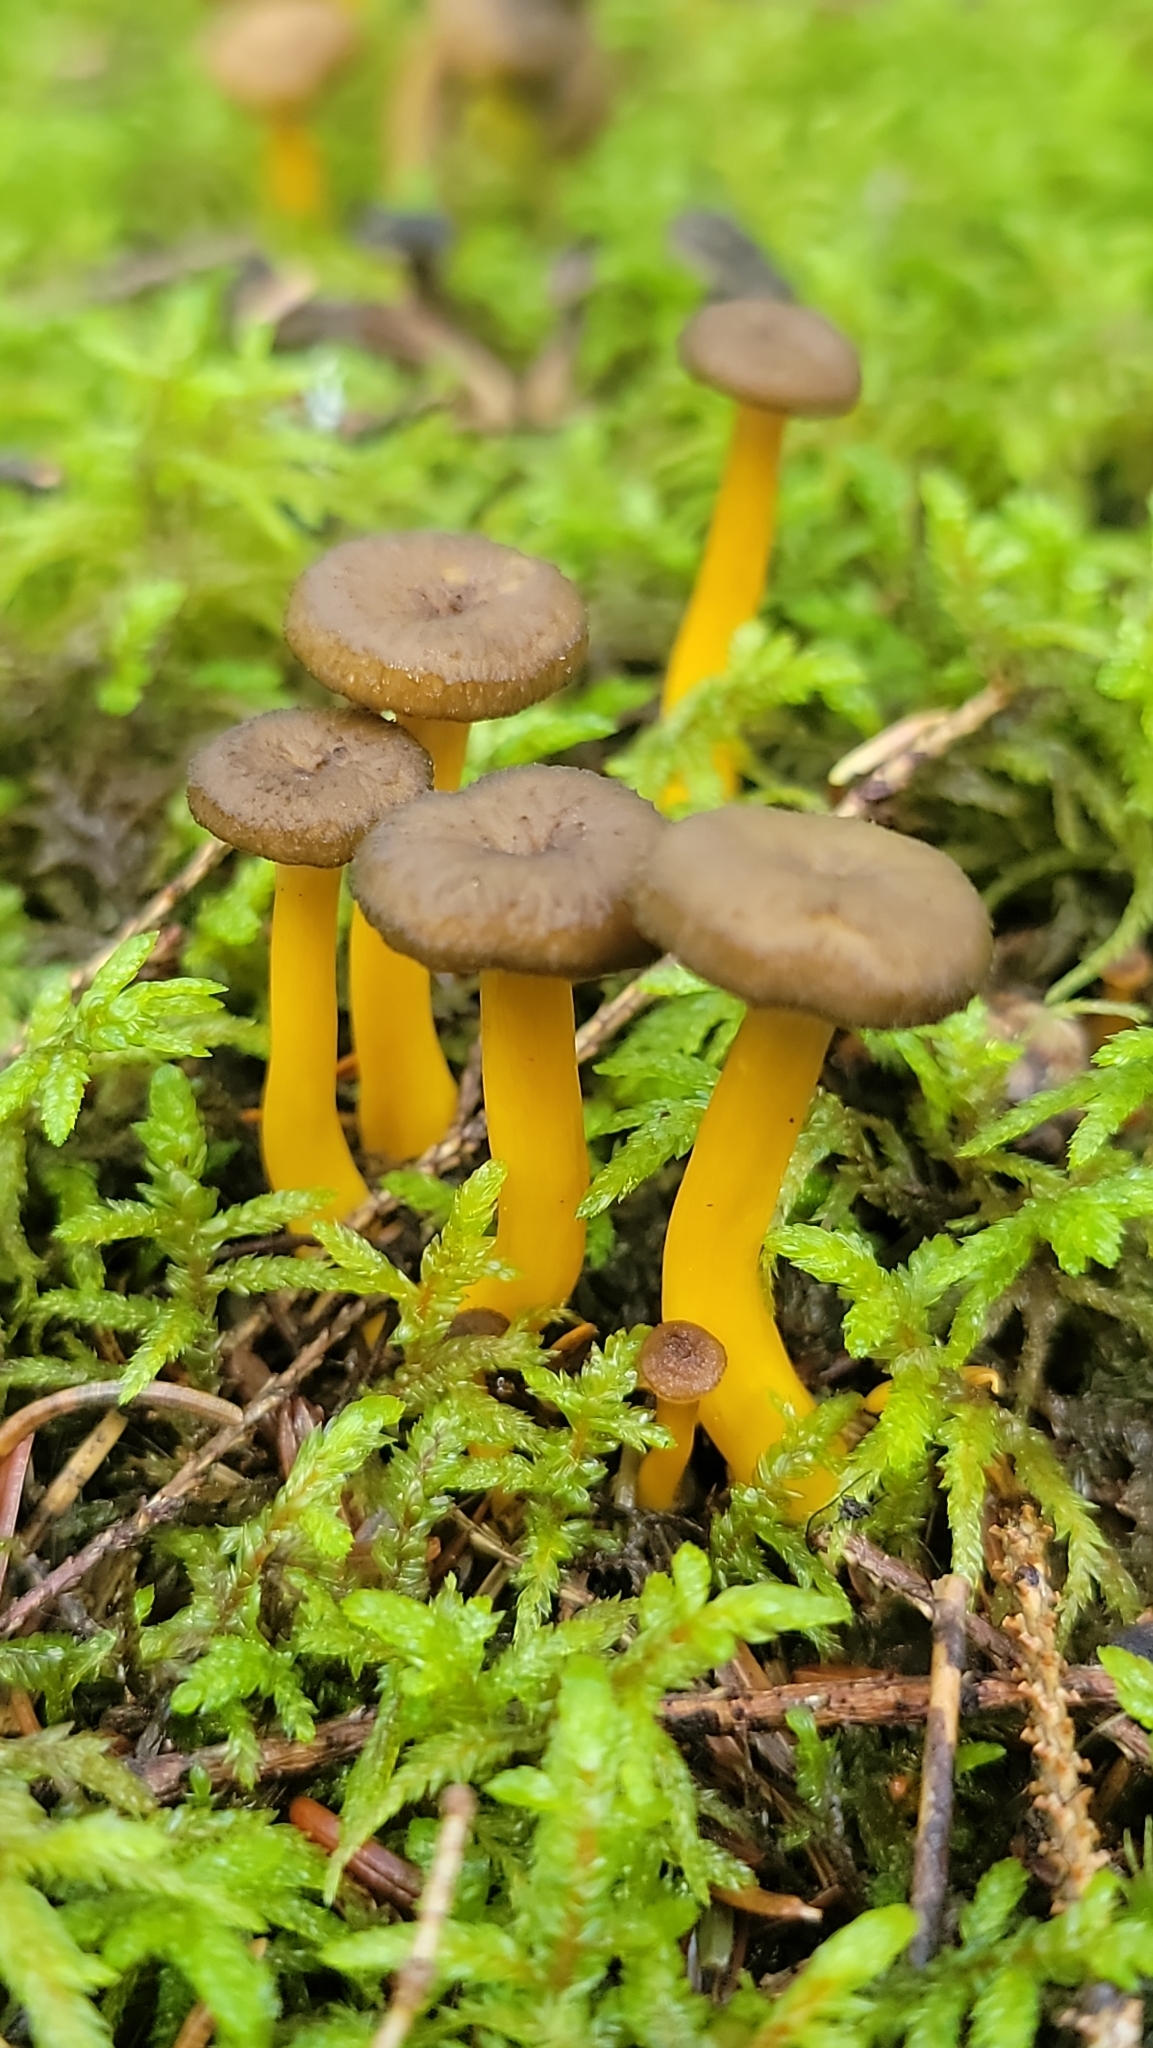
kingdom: Fungi
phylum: Basidiomycota
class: Agaricomycetes
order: Cantharellales
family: Hydnaceae
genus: Craterellus
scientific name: Craterellus tubaeformis
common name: Yellowfoot
